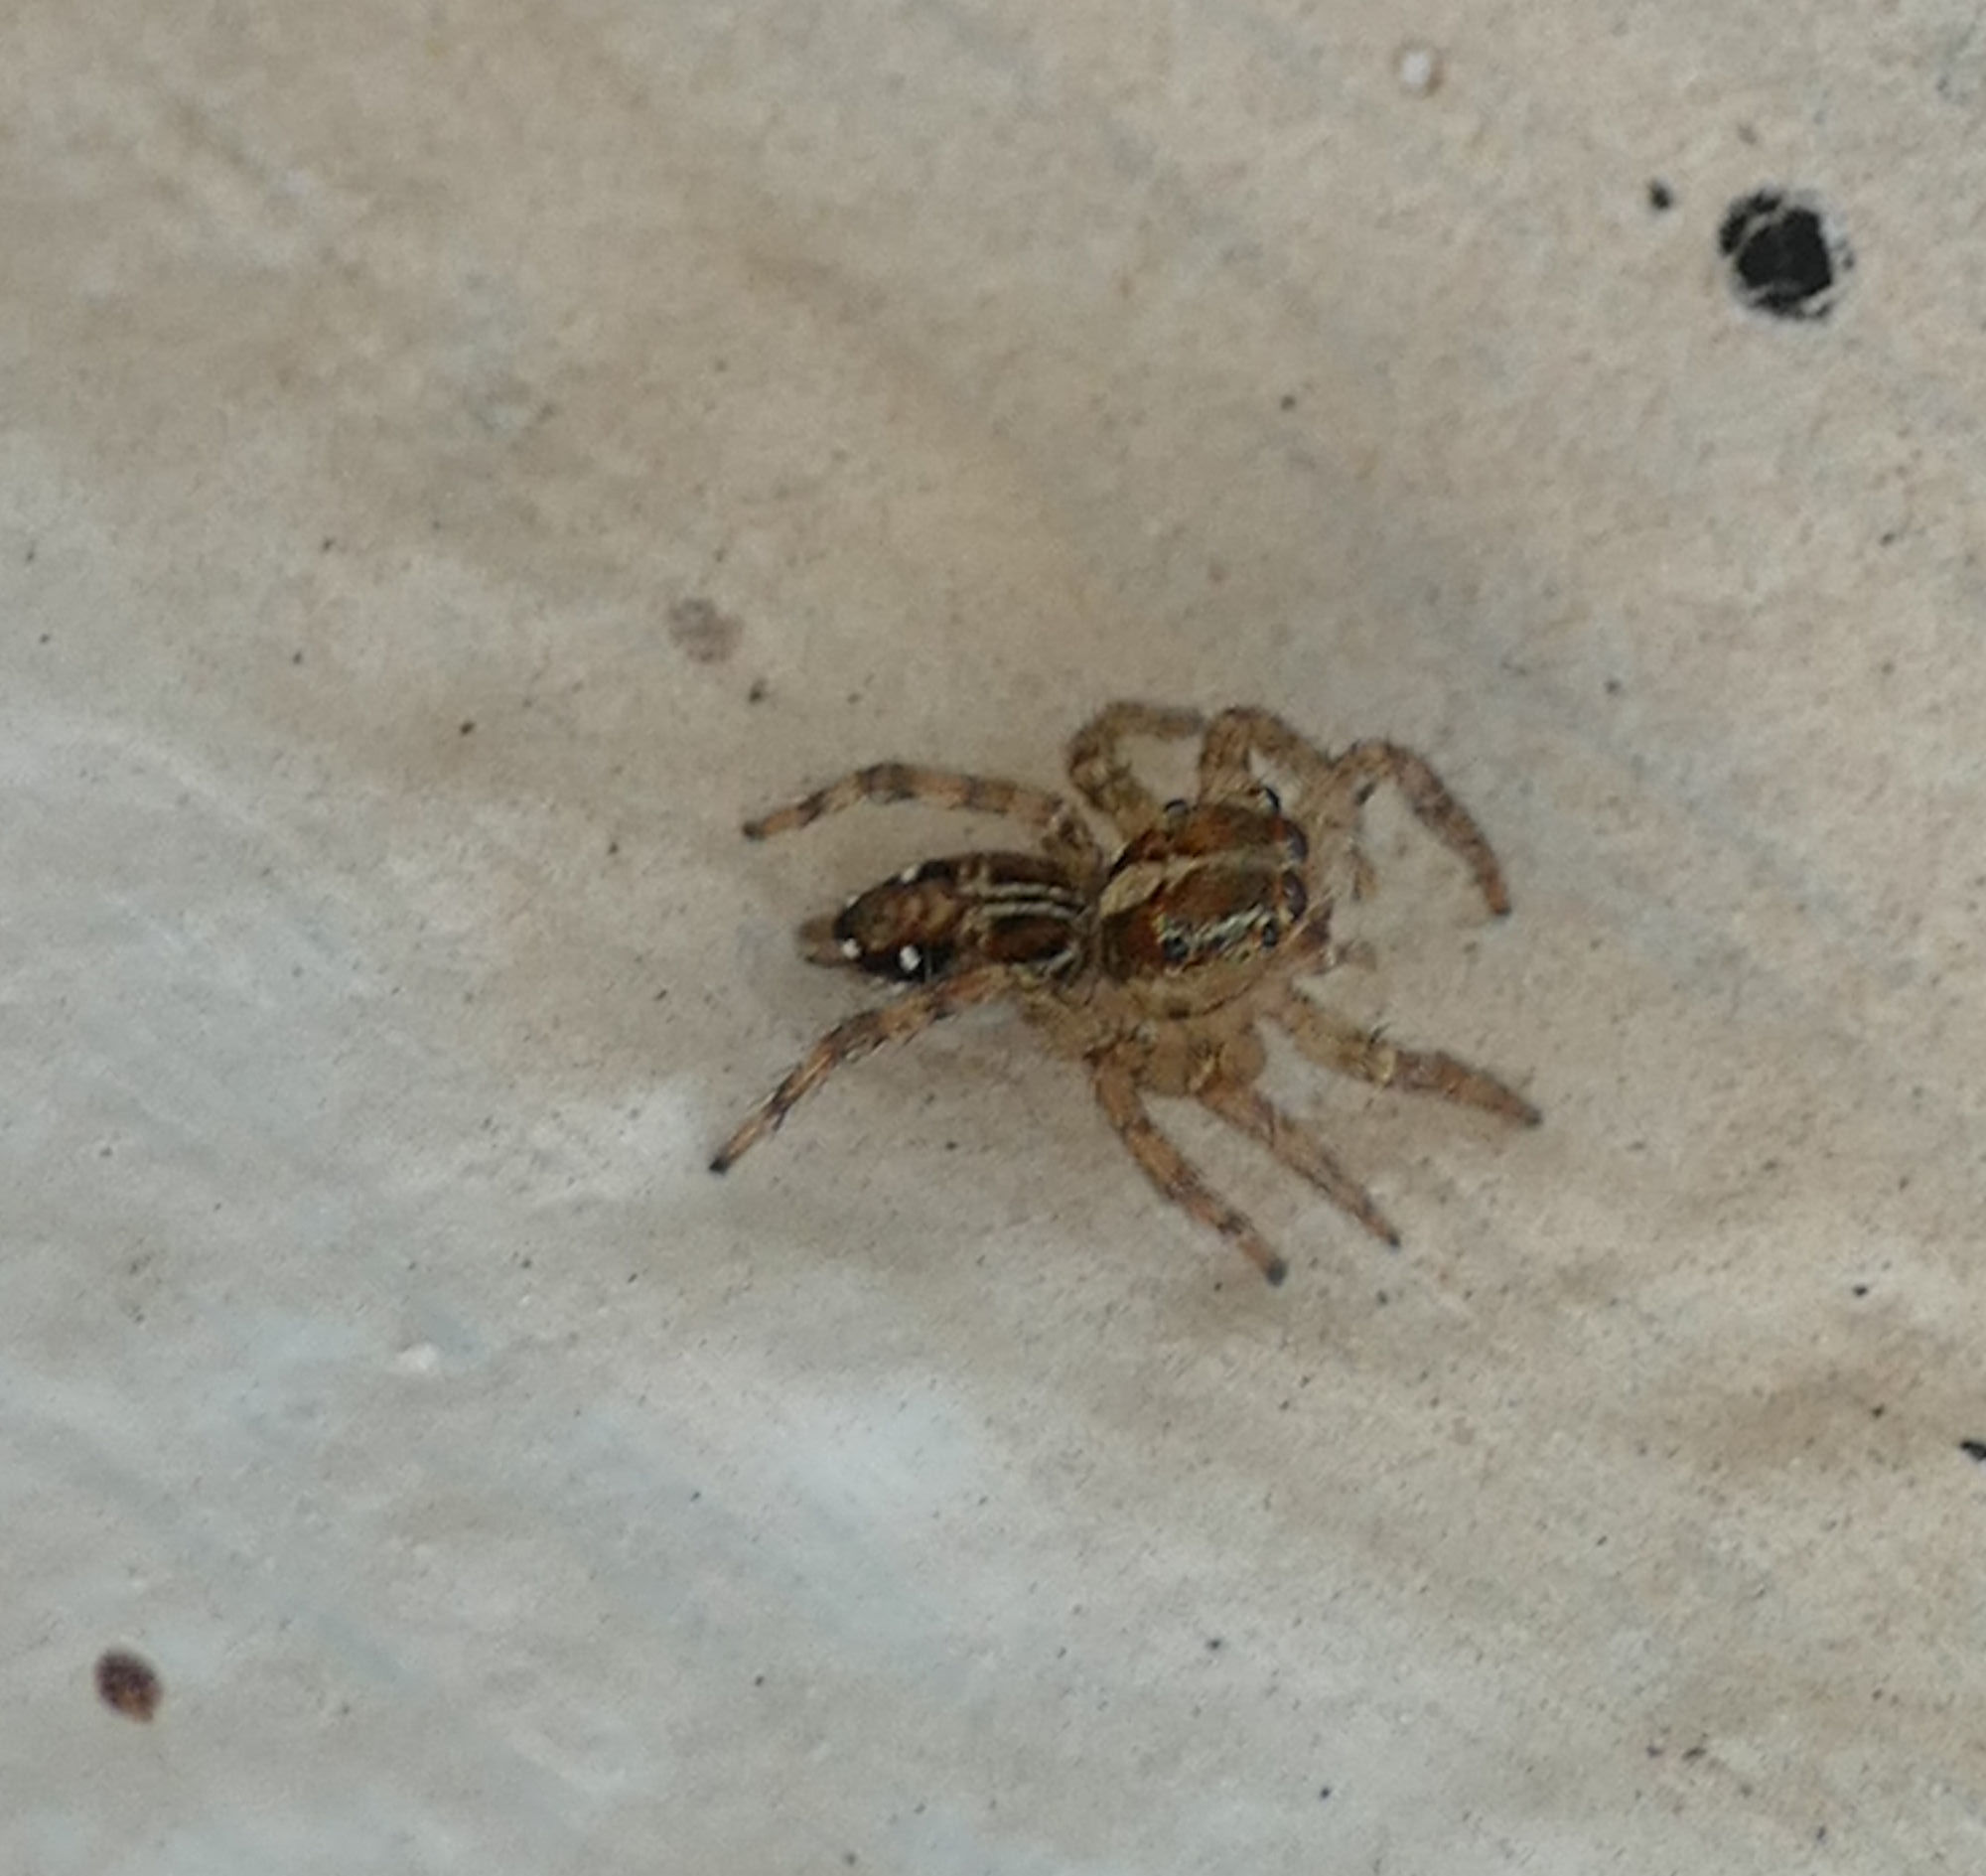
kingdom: Animalia
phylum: Arthropoda
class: Arachnida
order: Araneae
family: Salticidae
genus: Plexippus
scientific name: Plexippus paykulli
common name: Pantropical jumper
